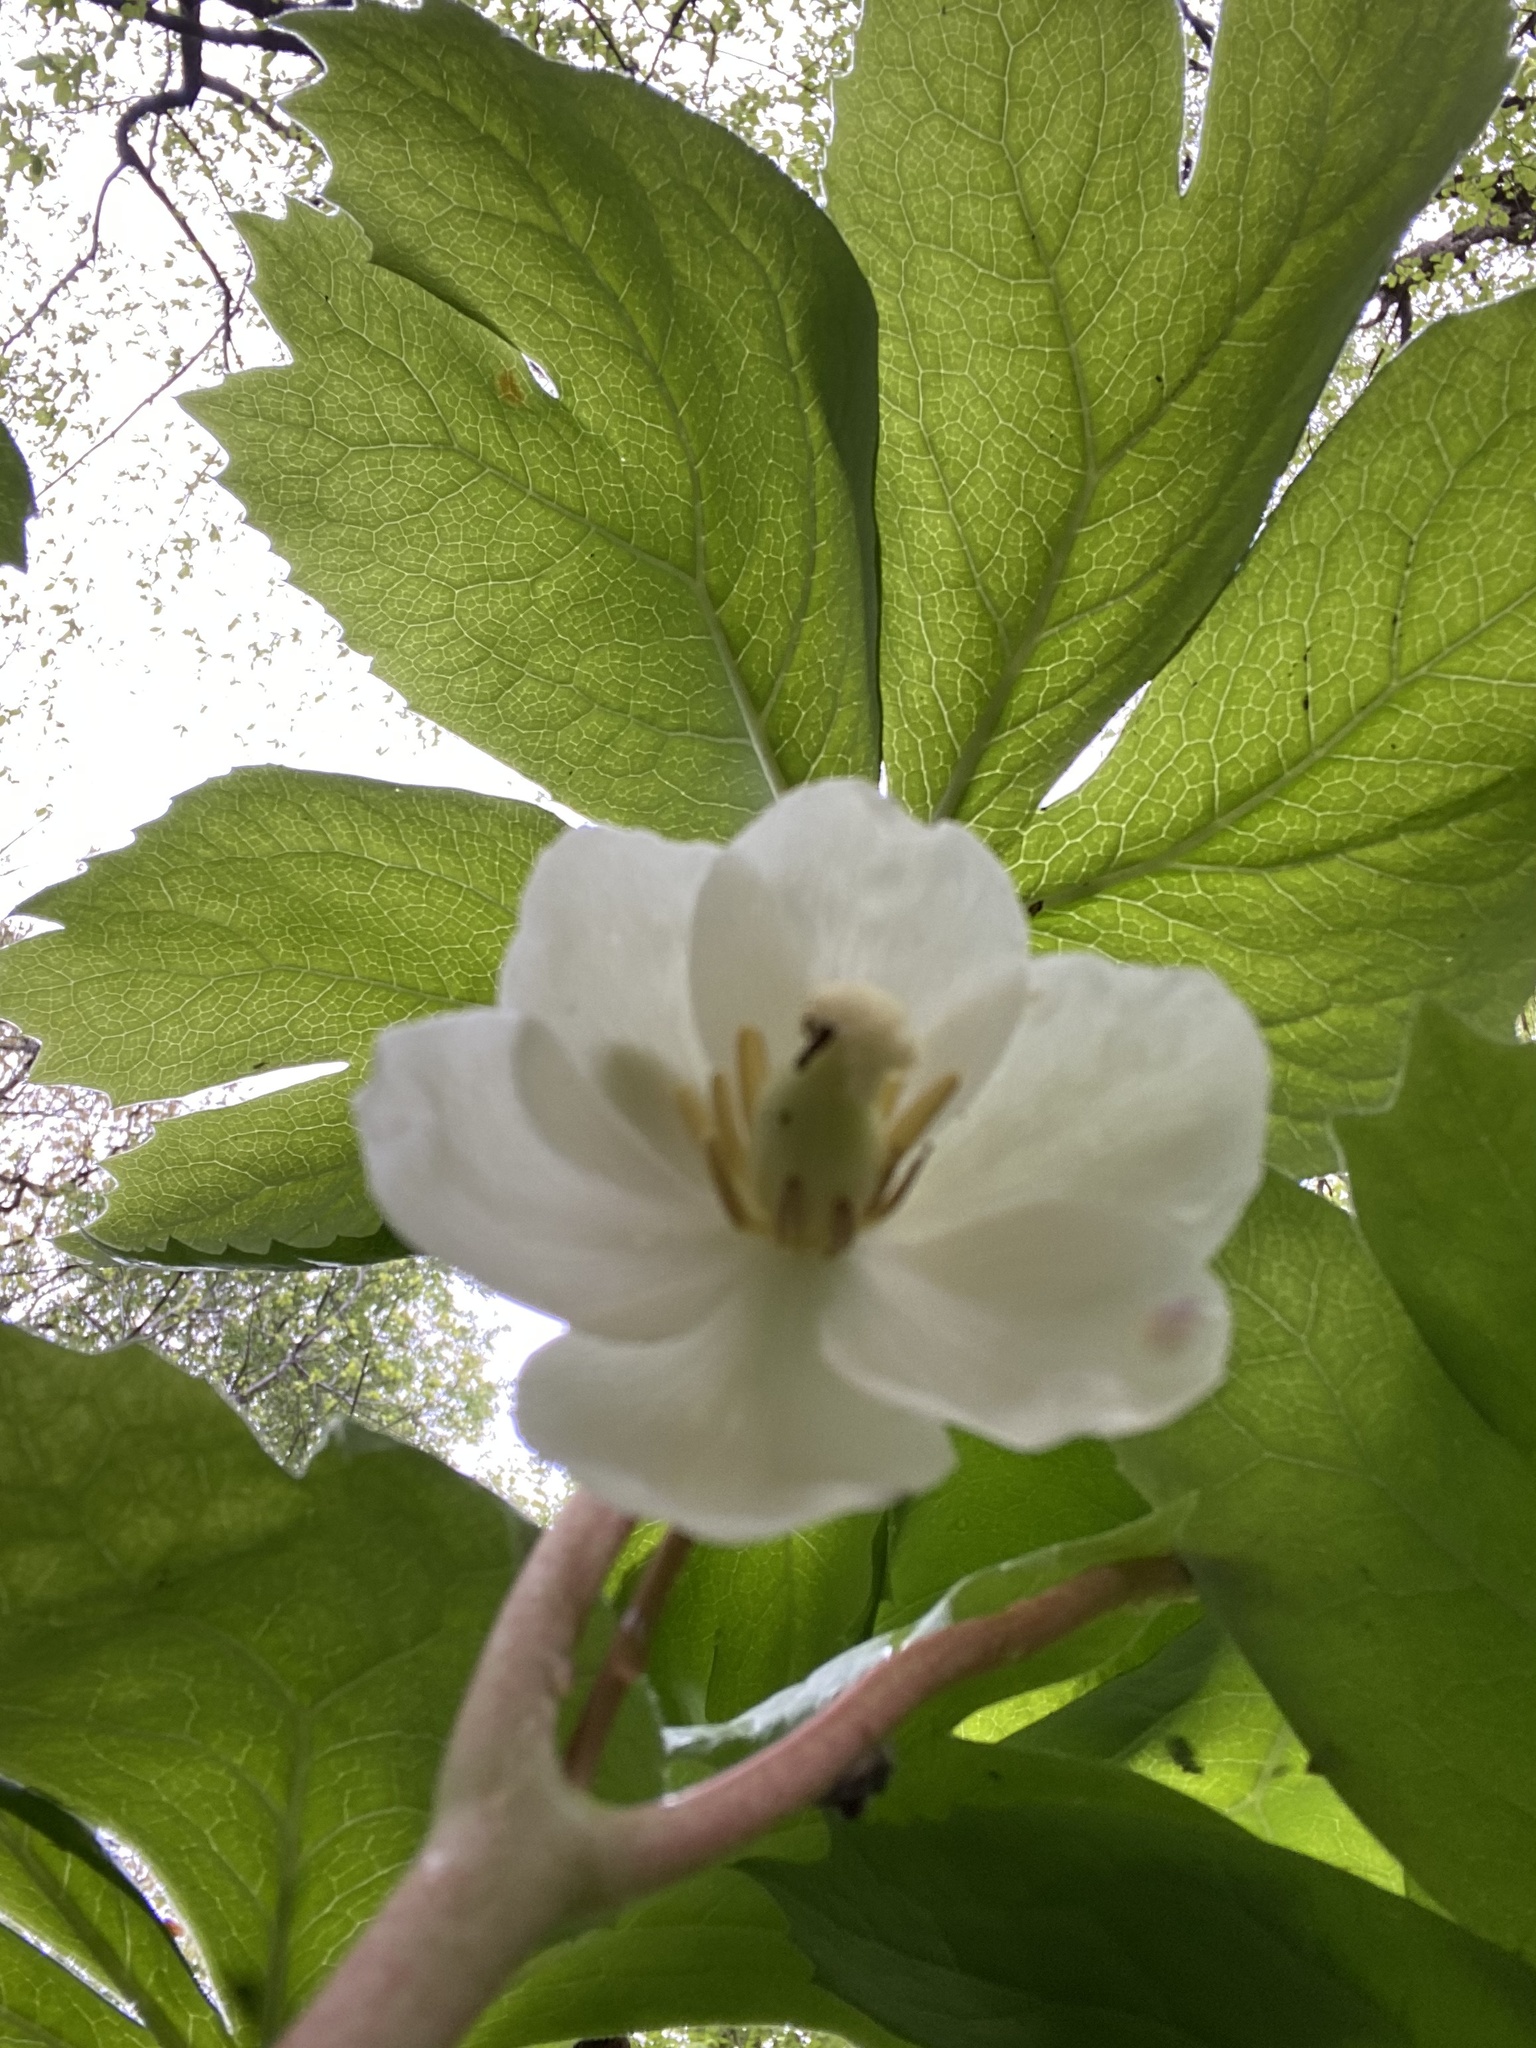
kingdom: Plantae
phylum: Tracheophyta
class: Magnoliopsida
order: Ranunculales
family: Berberidaceae
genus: Podophyllum
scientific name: Podophyllum peltatum
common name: Wild mandrake
